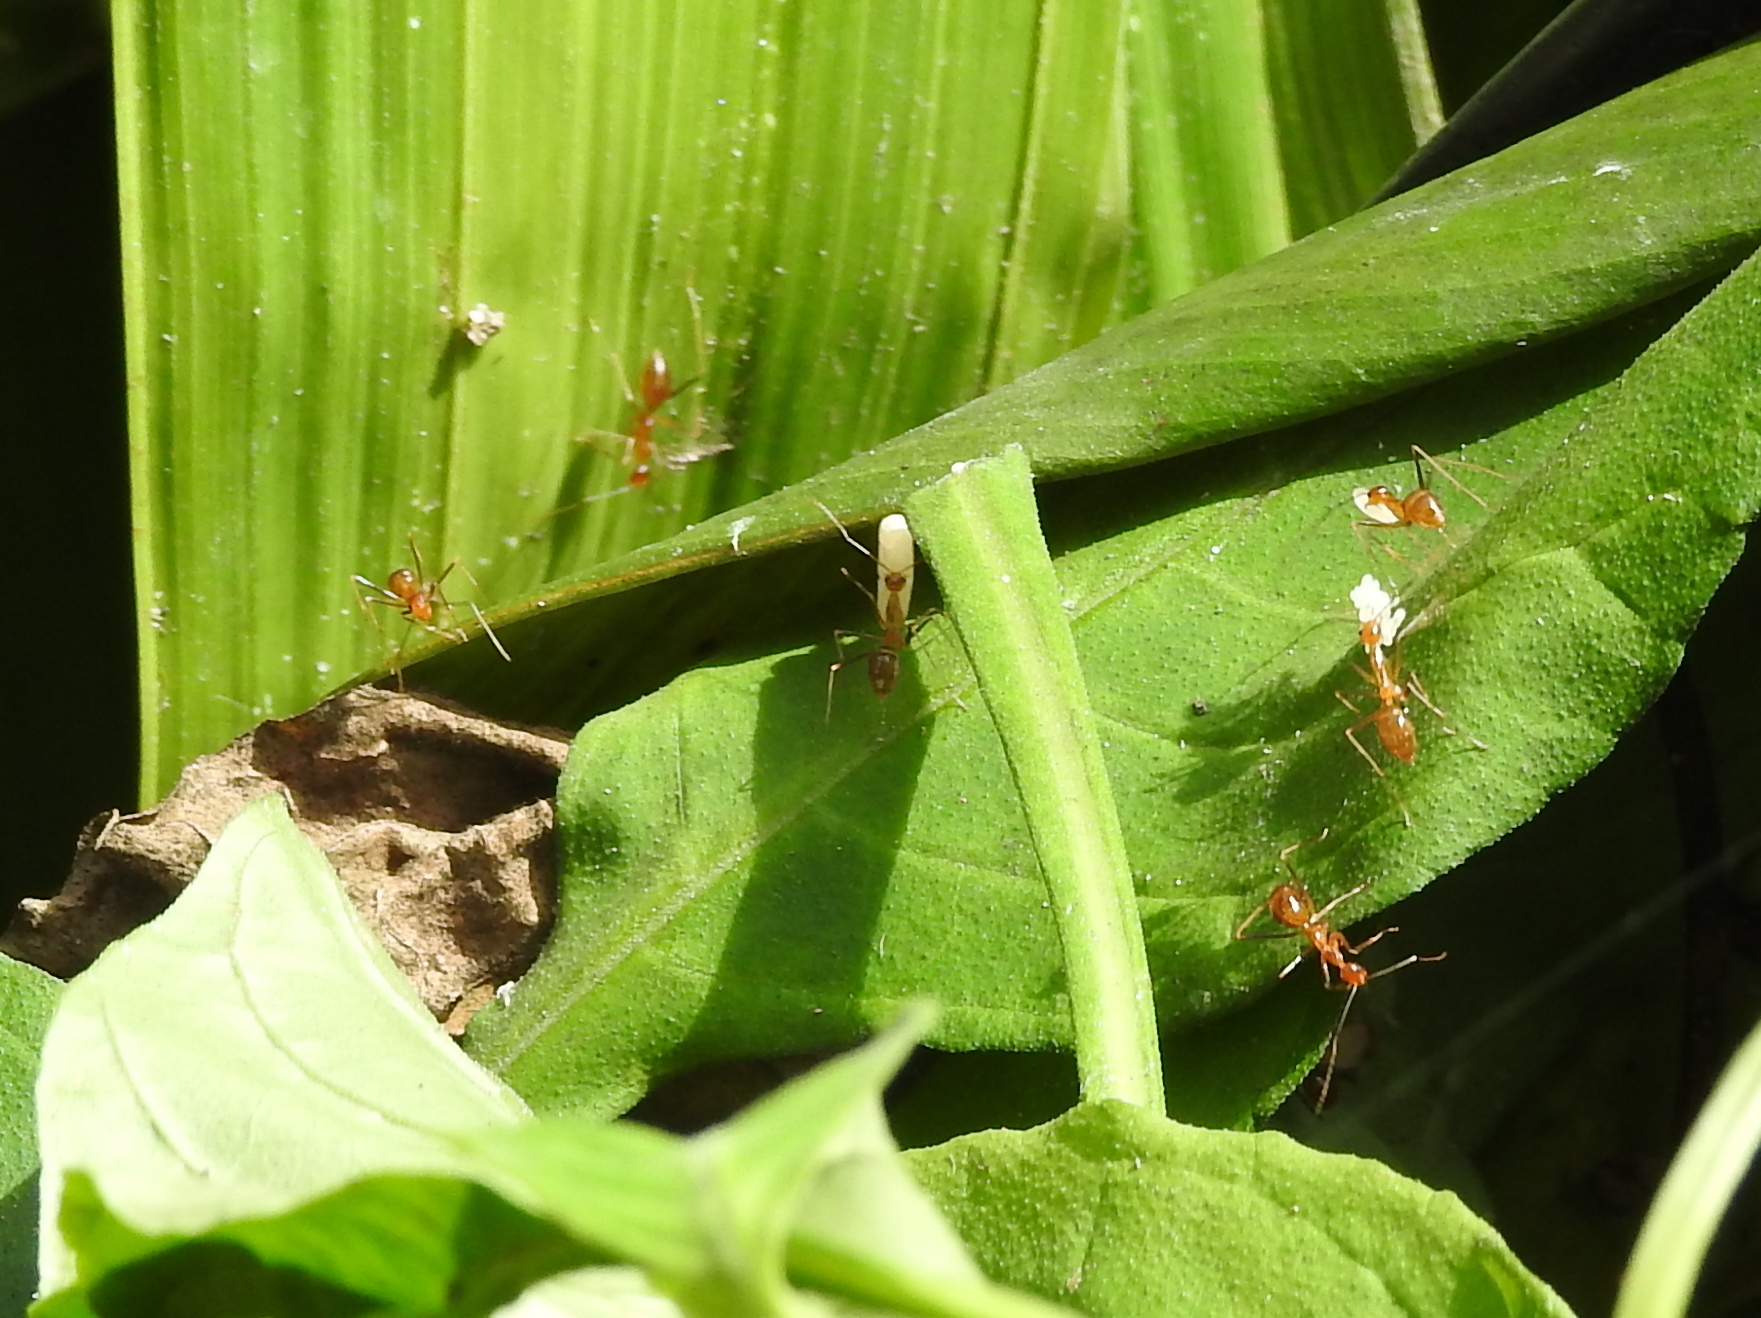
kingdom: Animalia
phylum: Arthropoda
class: Insecta
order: Hymenoptera
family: Formicidae
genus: Anoplolepis
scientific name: Anoplolepis gracilipes
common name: Ant
